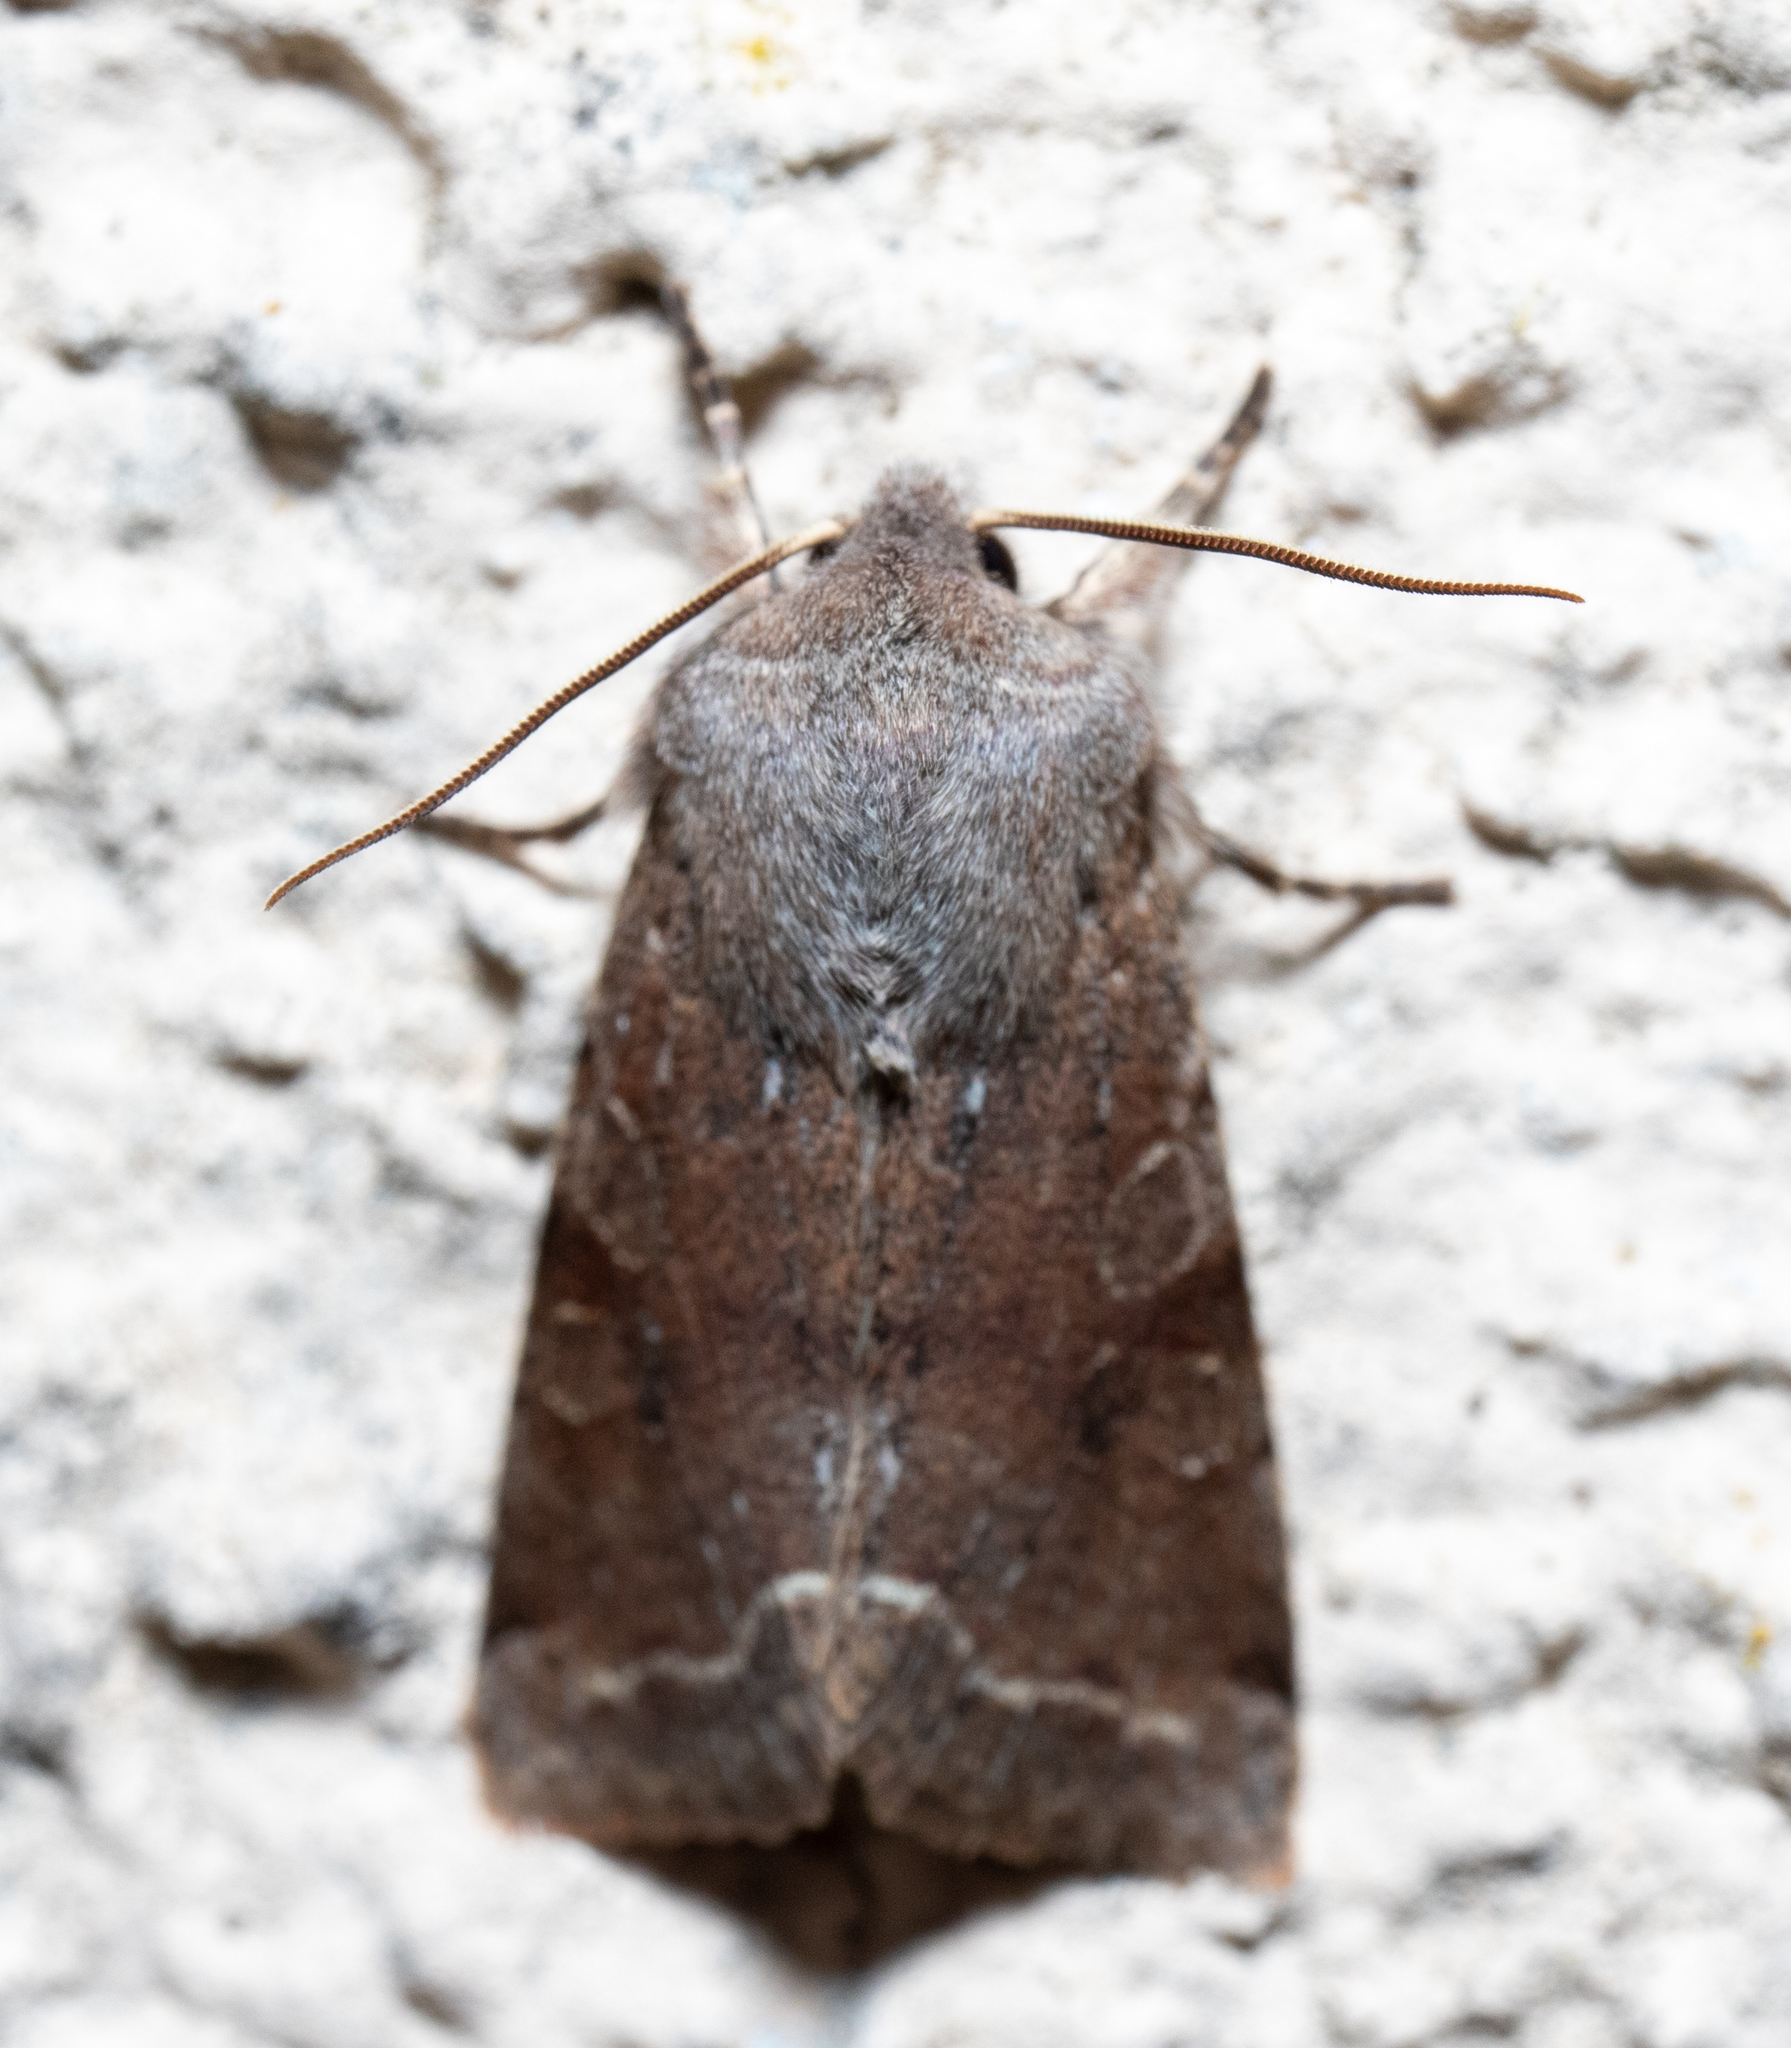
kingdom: Animalia
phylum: Arthropoda
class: Insecta
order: Lepidoptera
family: Noctuidae
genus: Orthosia
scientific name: Orthosia incerta
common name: Clouded drab
